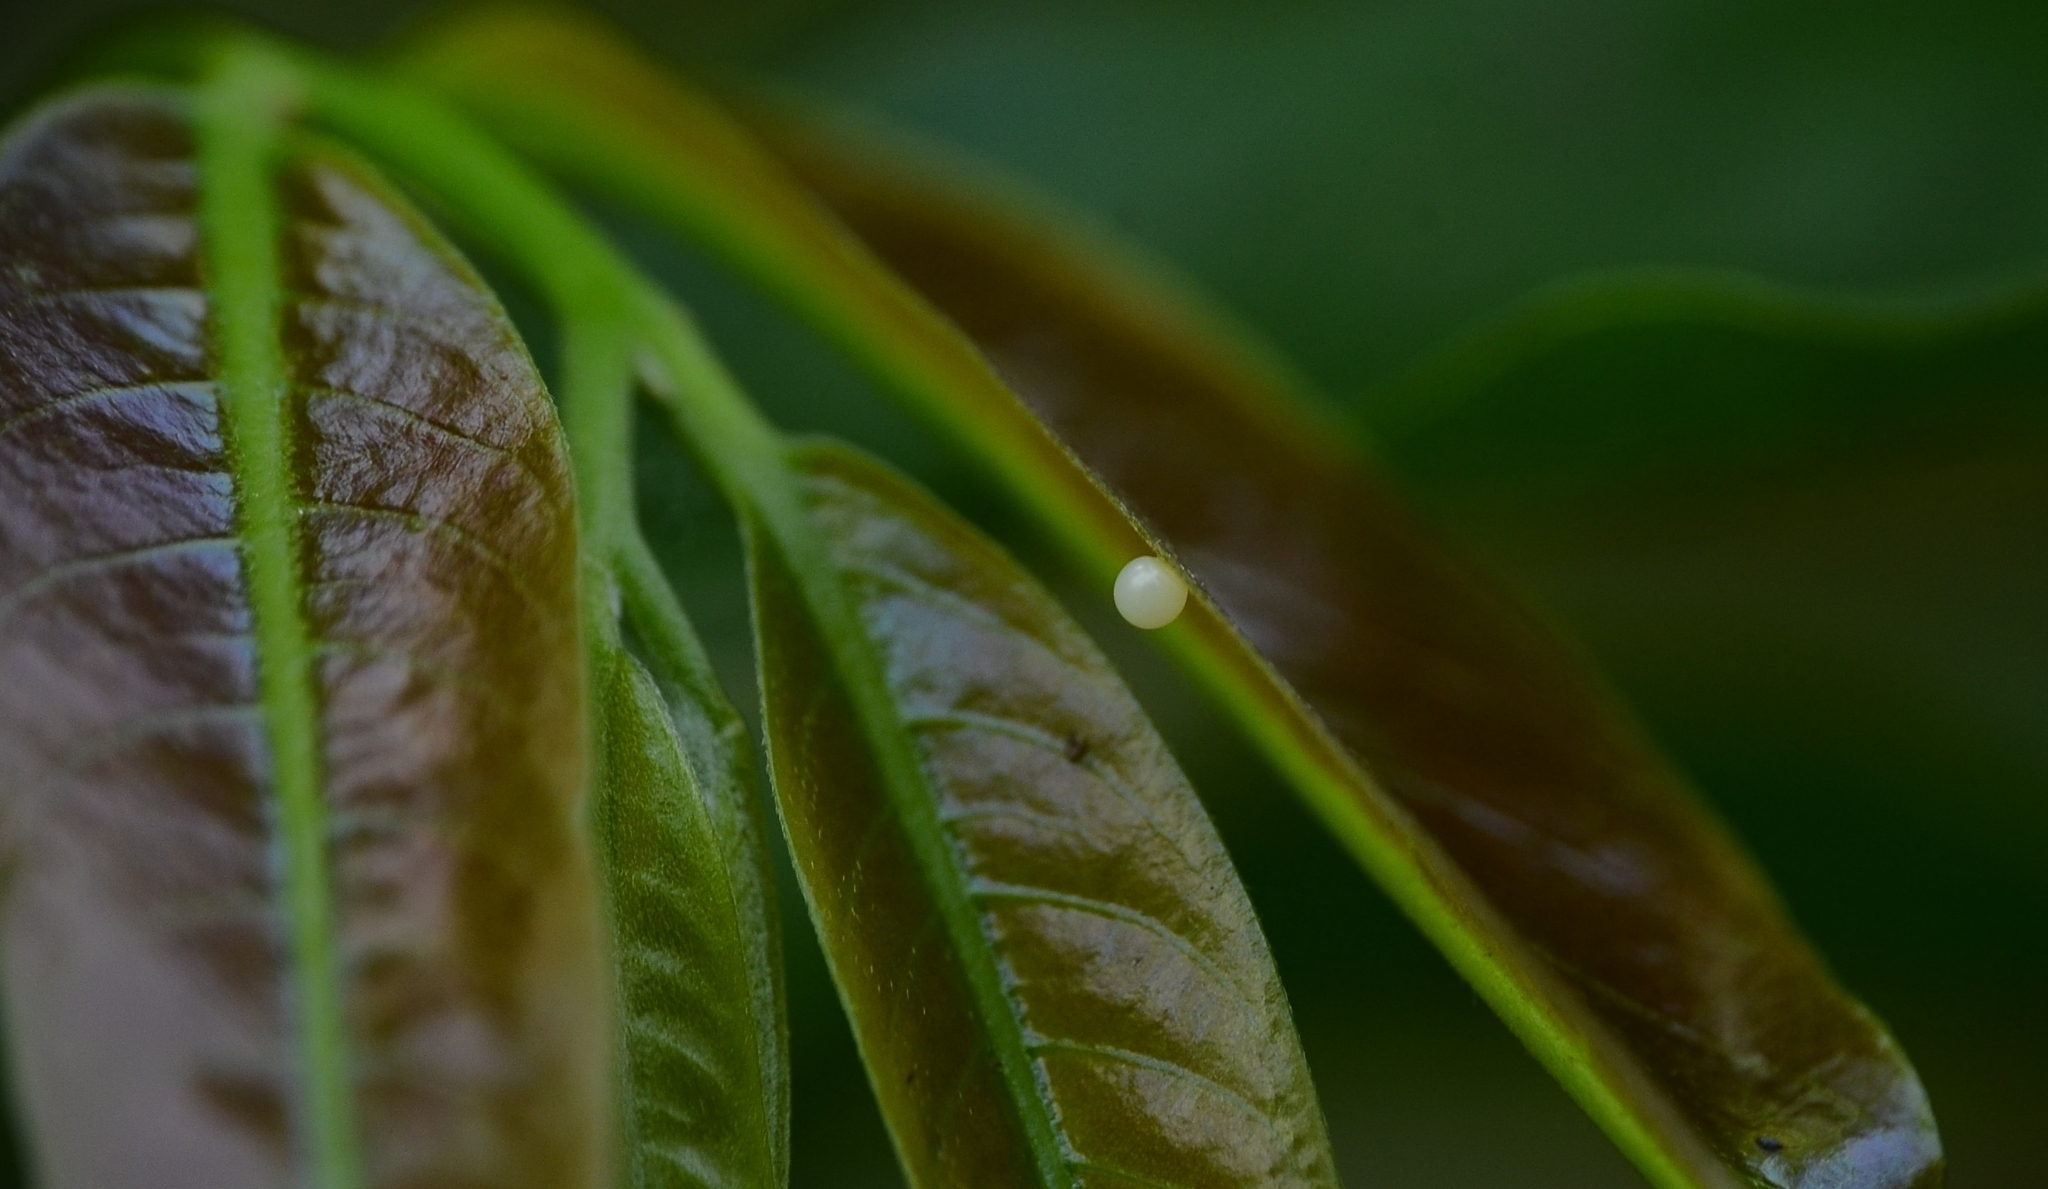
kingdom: Animalia
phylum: Arthropoda
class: Insecta
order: Lepidoptera
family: Papilionidae
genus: Graphium
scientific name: Graphium agamemnon
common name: Tailed jay
